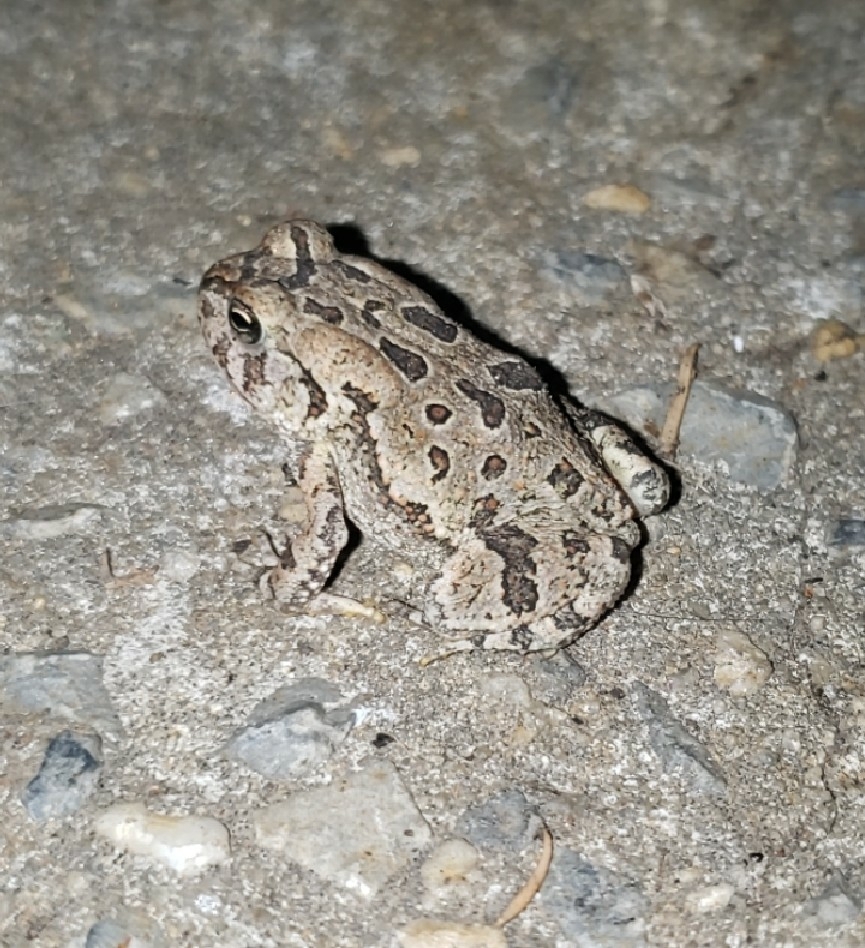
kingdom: Animalia
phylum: Chordata
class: Amphibia
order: Anura
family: Bufonidae
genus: Anaxyrus
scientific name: Anaxyrus fowleri
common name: Fowler's toad
